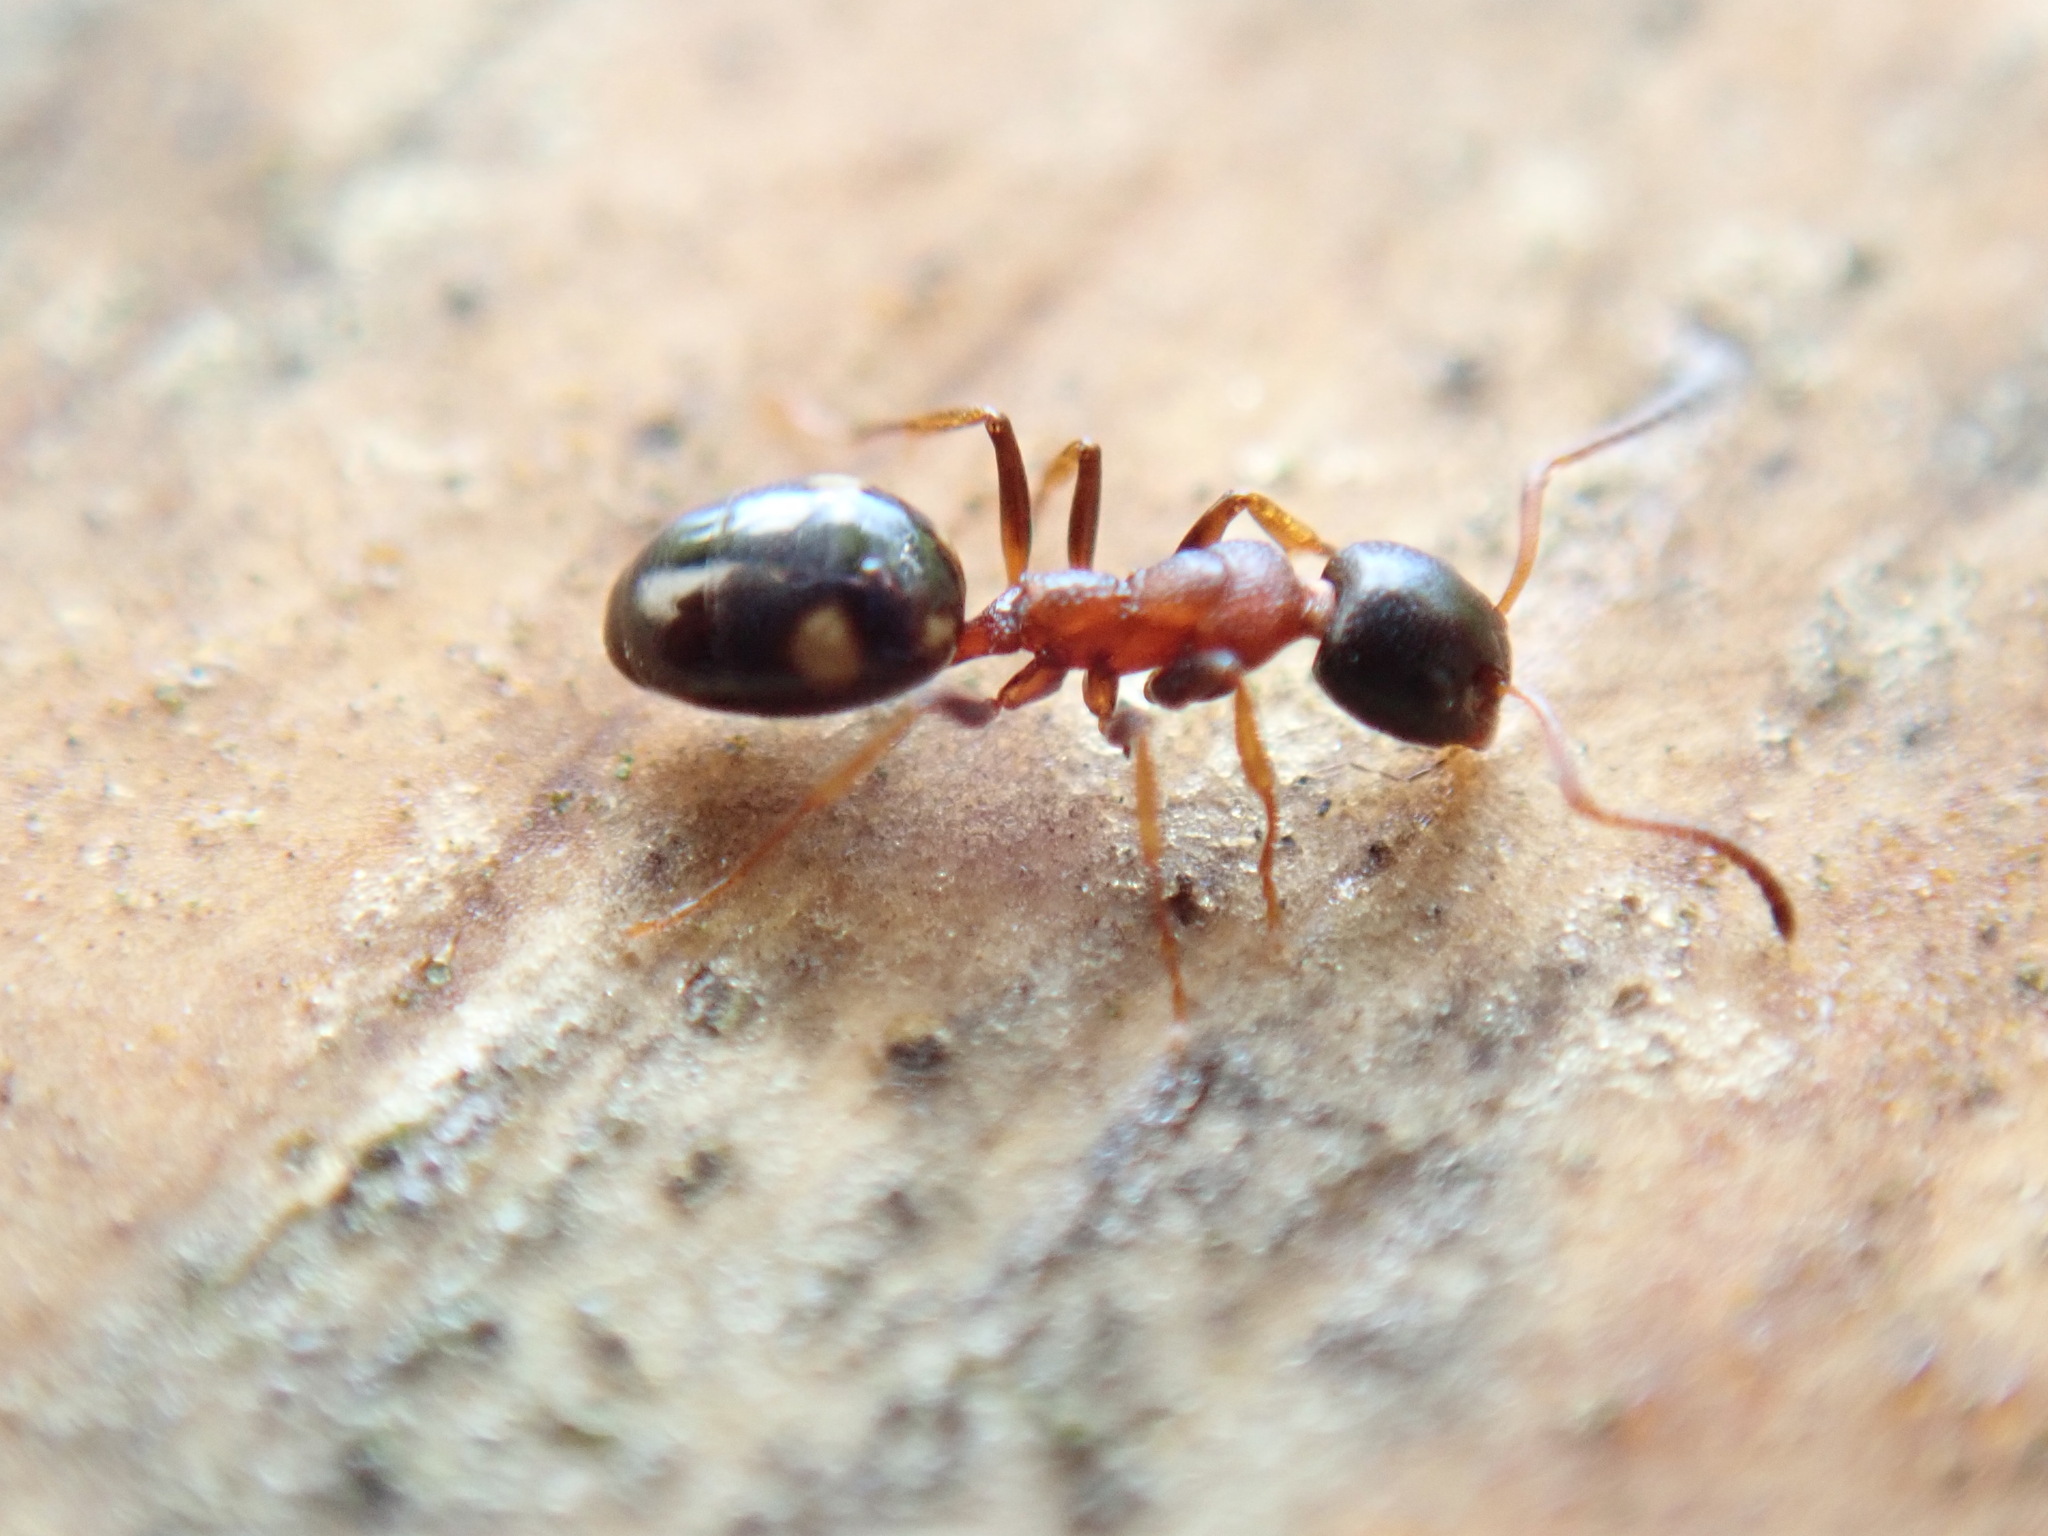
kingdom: Animalia
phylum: Arthropoda
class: Insecta
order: Hymenoptera
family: Formicidae
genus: Dolichoderus
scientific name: Dolichoderus quadripunctatus
